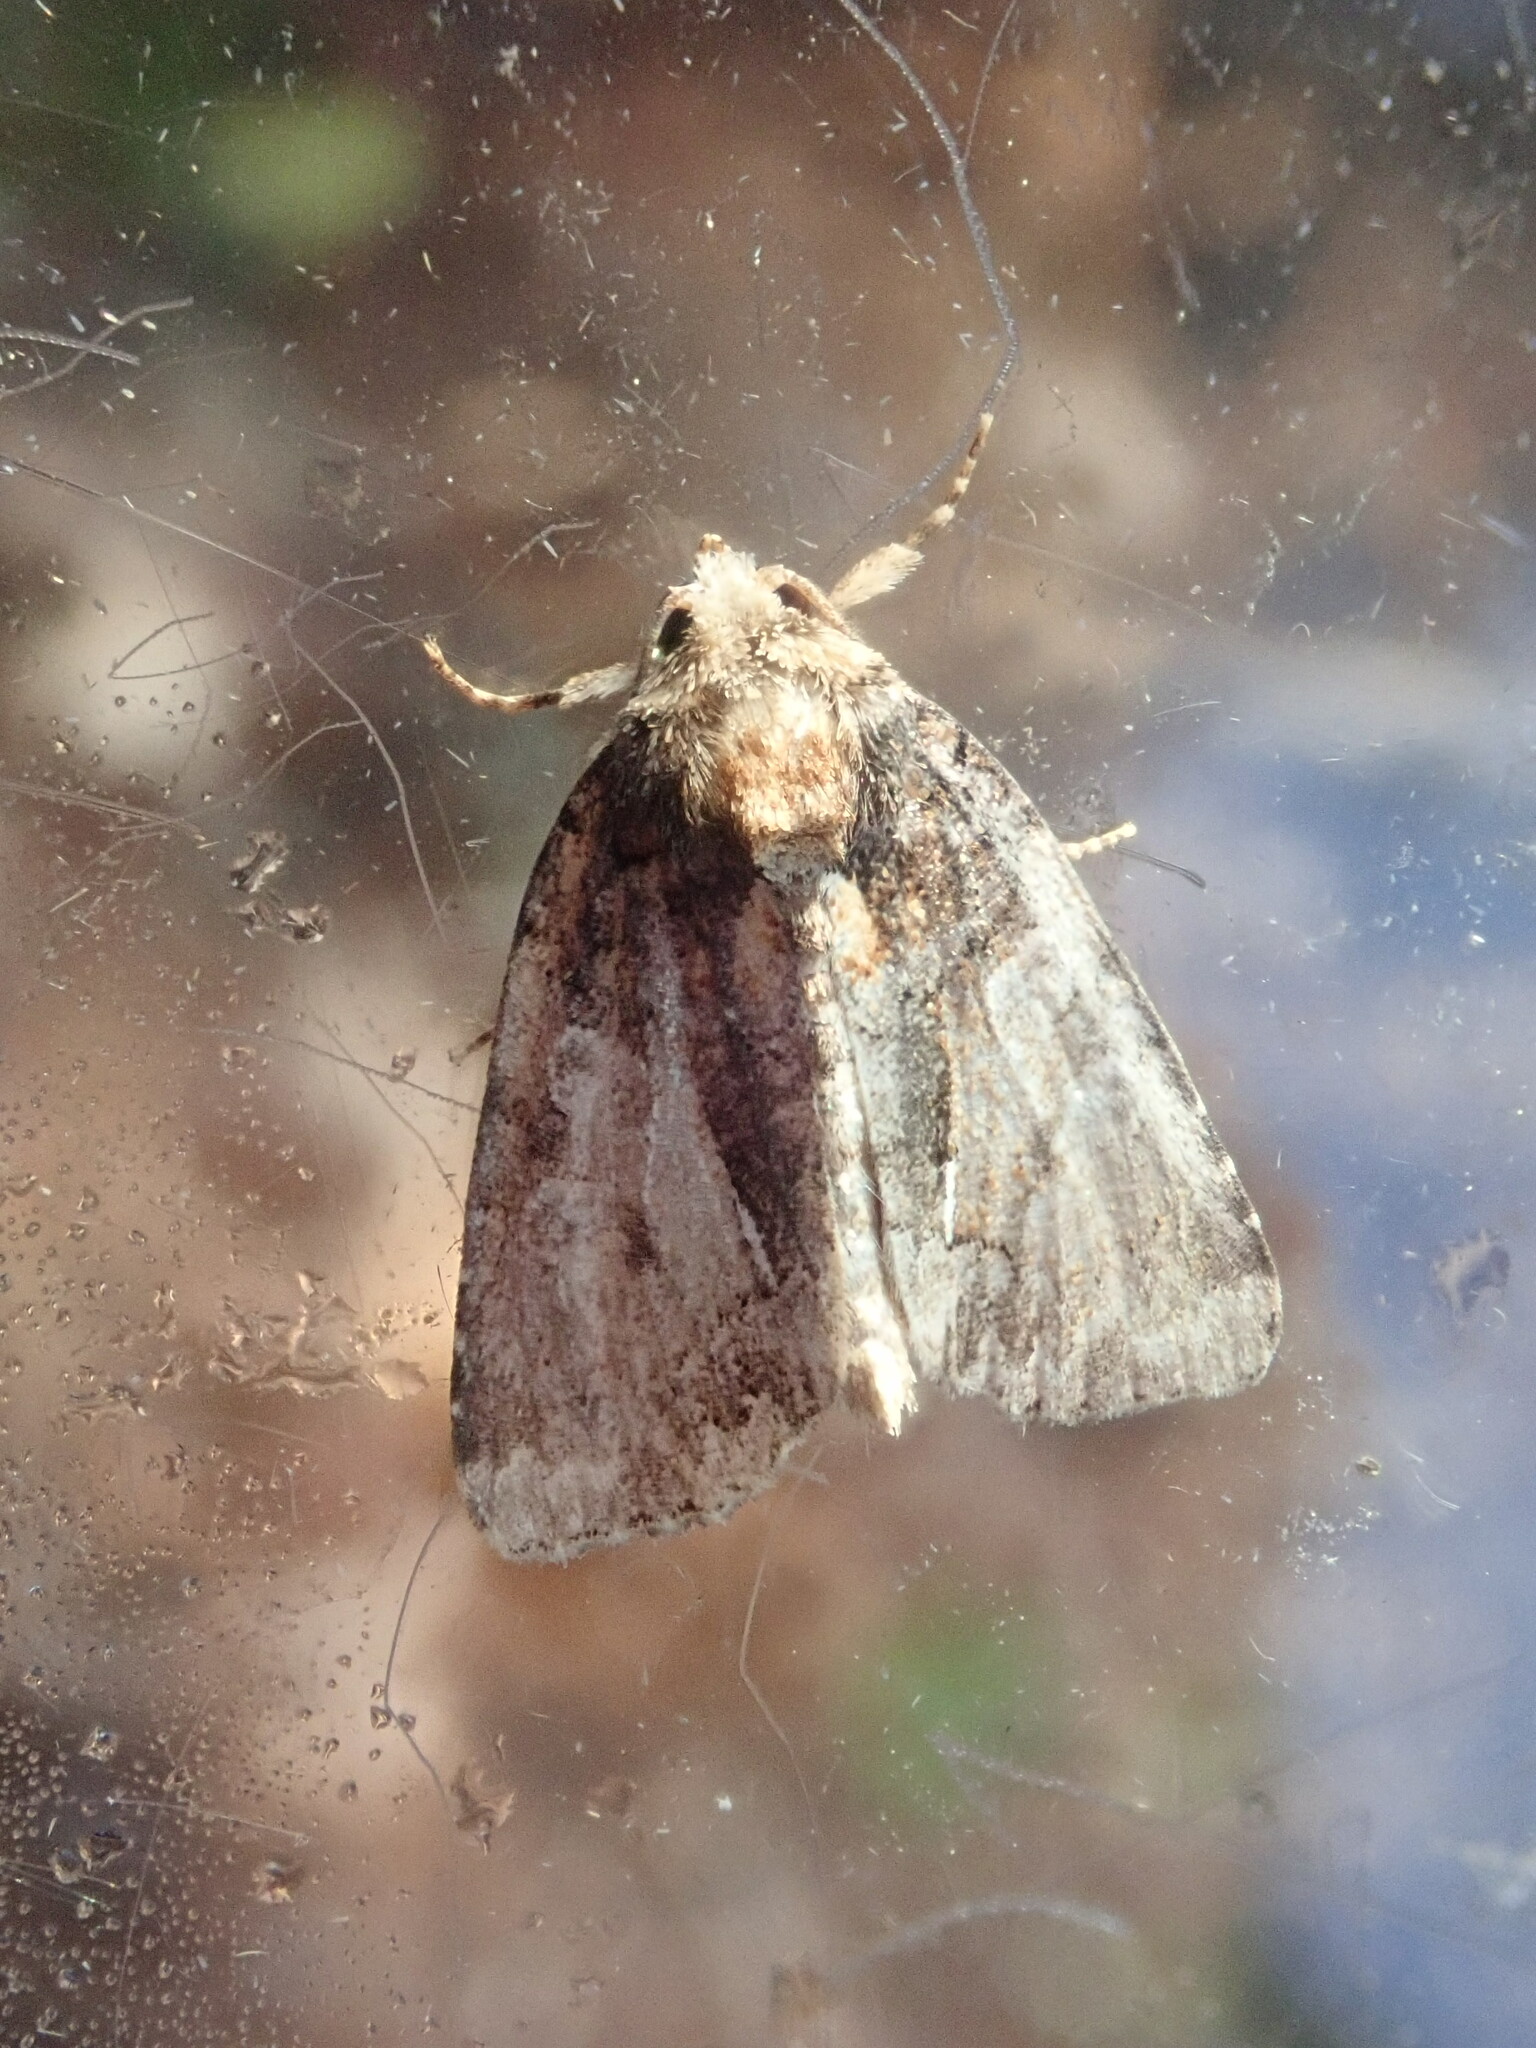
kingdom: Animalia
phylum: Arthropoda
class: Insecta
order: Lepidoptera
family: Noctuidae
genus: Chytonix
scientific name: Chytonix palliatricula
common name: Cloaked marvel
